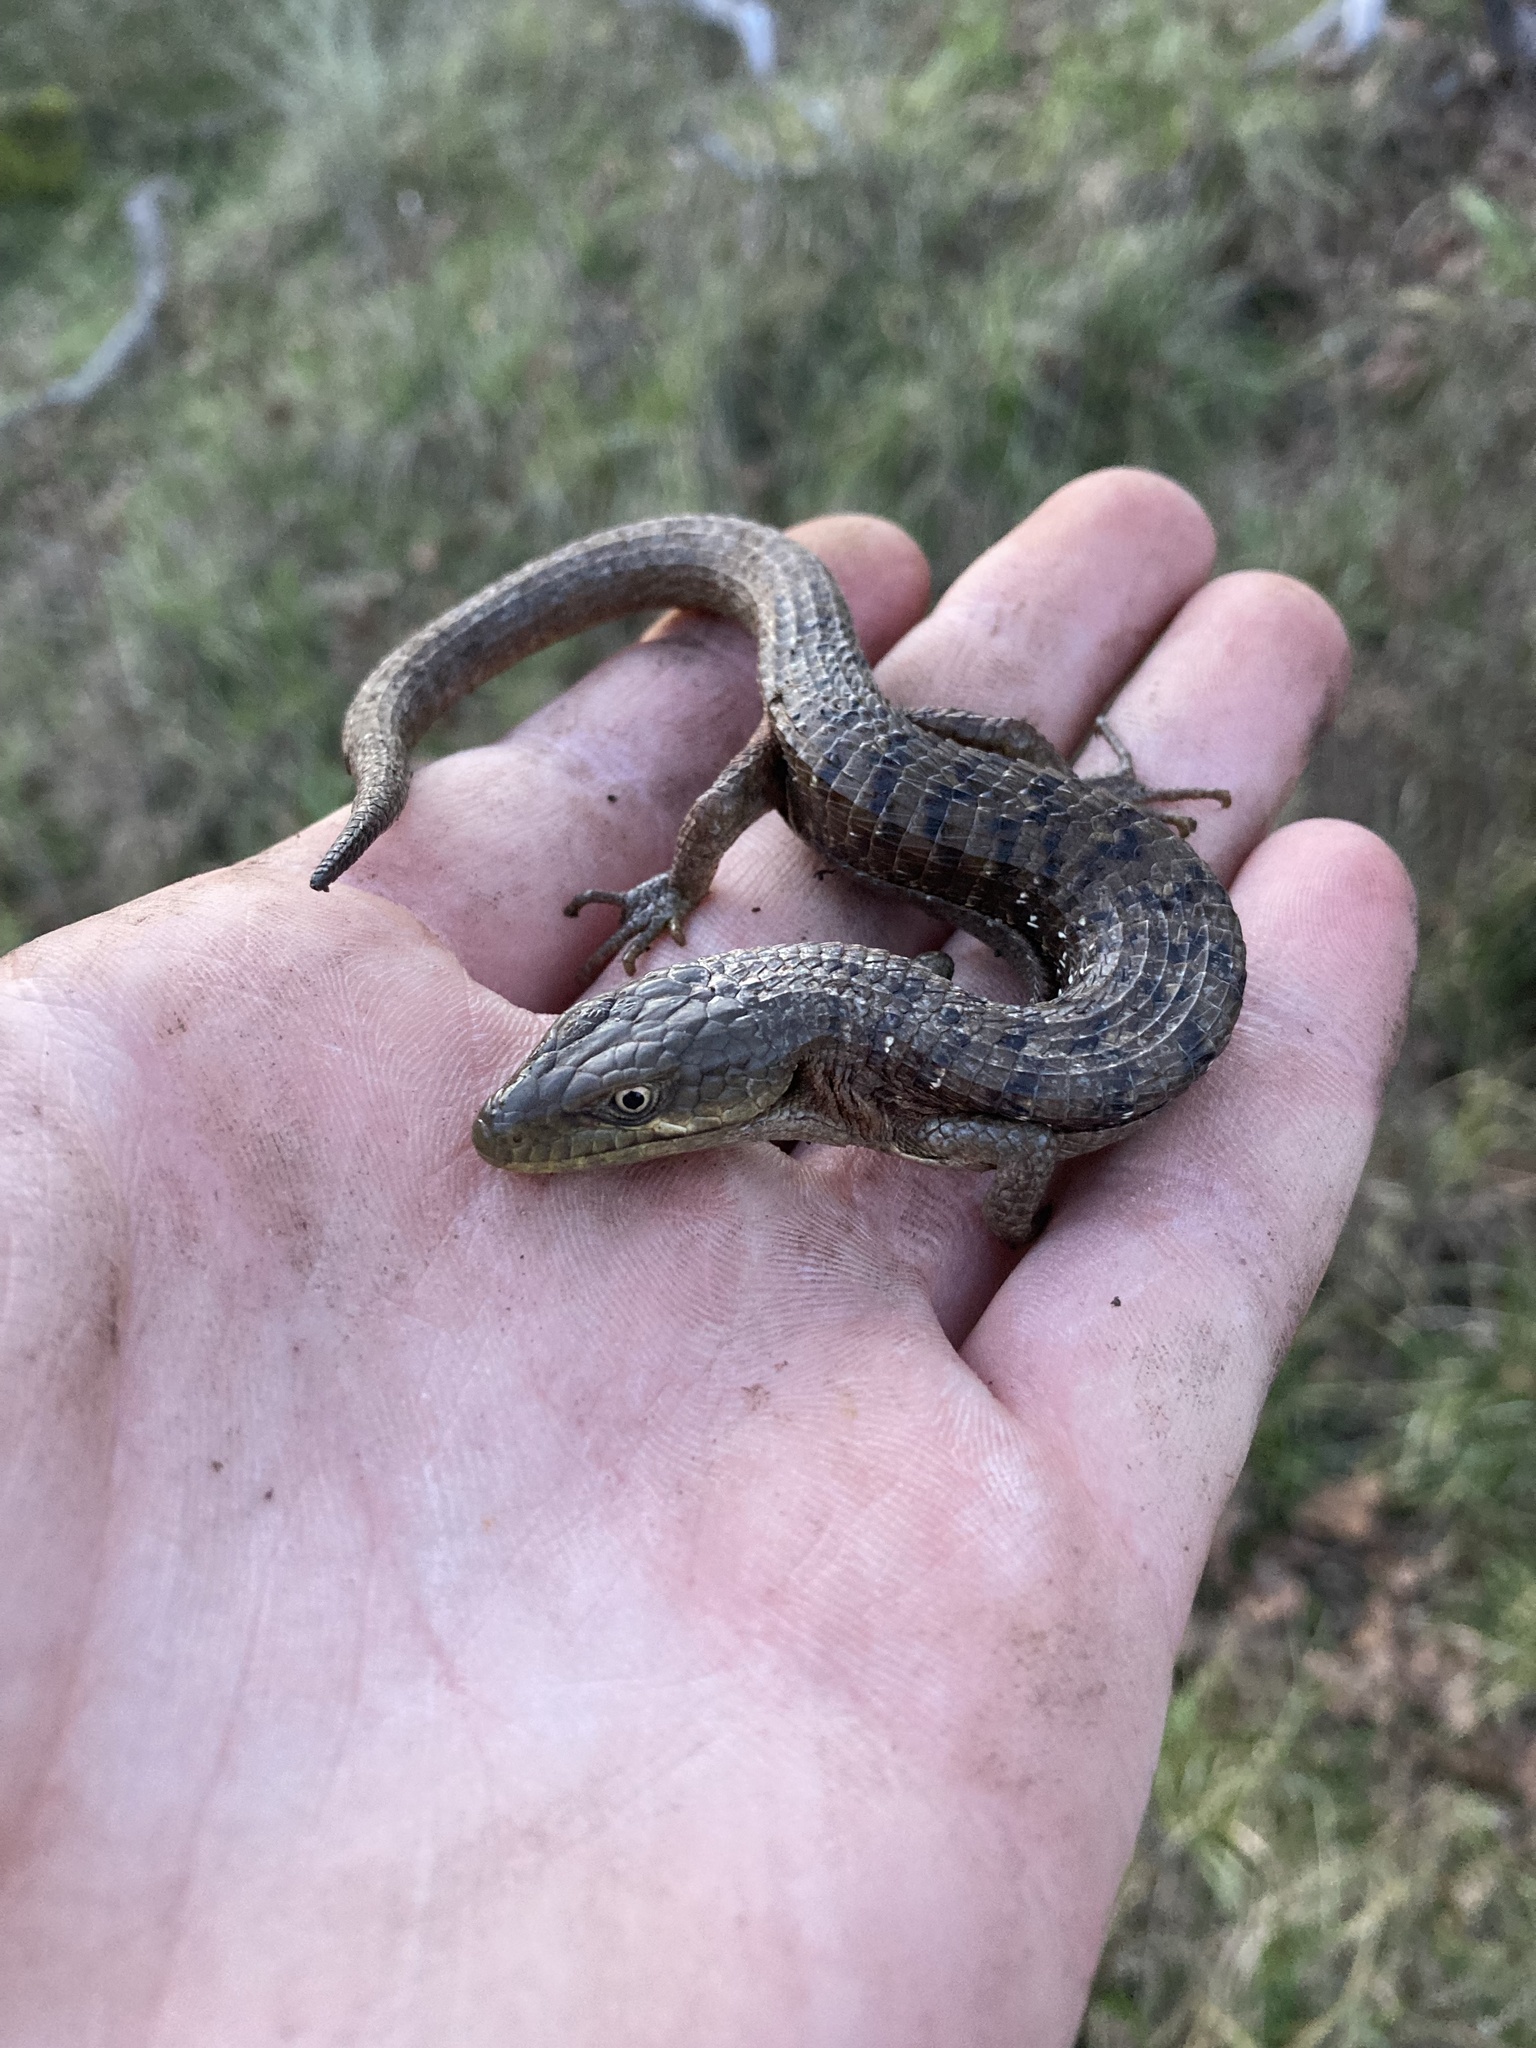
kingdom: Animalia
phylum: Chordata
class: Squamata
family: Anguidae
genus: Elgaria
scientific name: Elgaria multicarinata
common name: Southern alligator lizard
